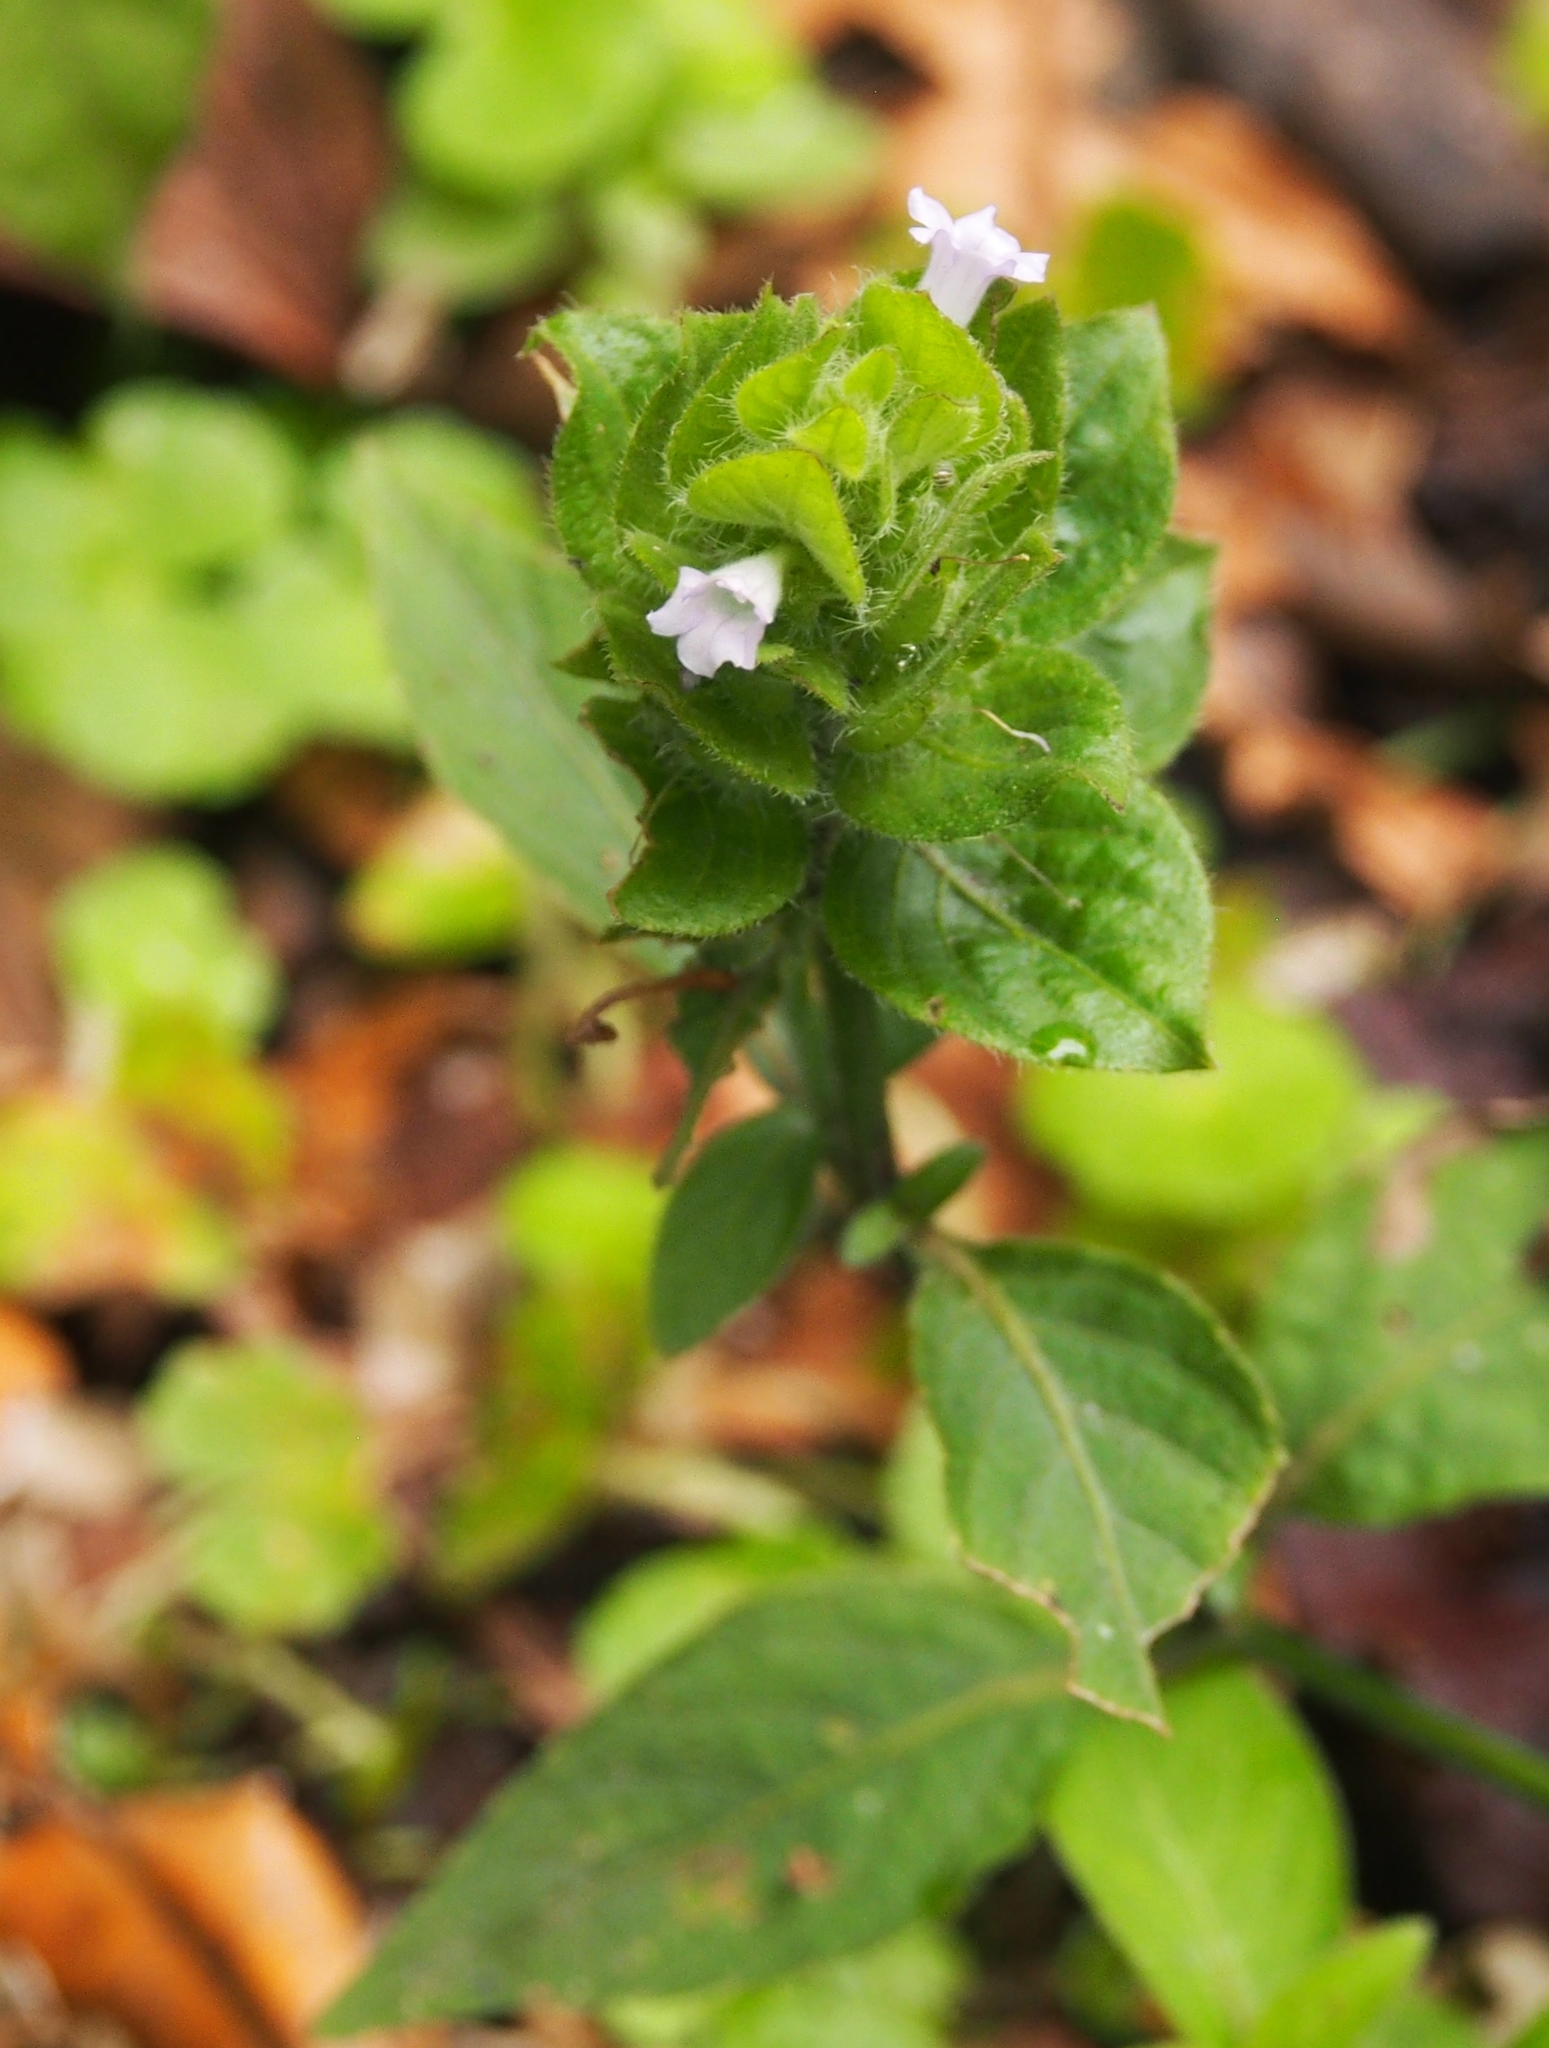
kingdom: Plantae
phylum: Tracheophyta
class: Magnoliopsida
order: Lamiales
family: Acanthaceae
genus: Ruellia
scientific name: Ruellia blechum
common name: Browne's blechum
